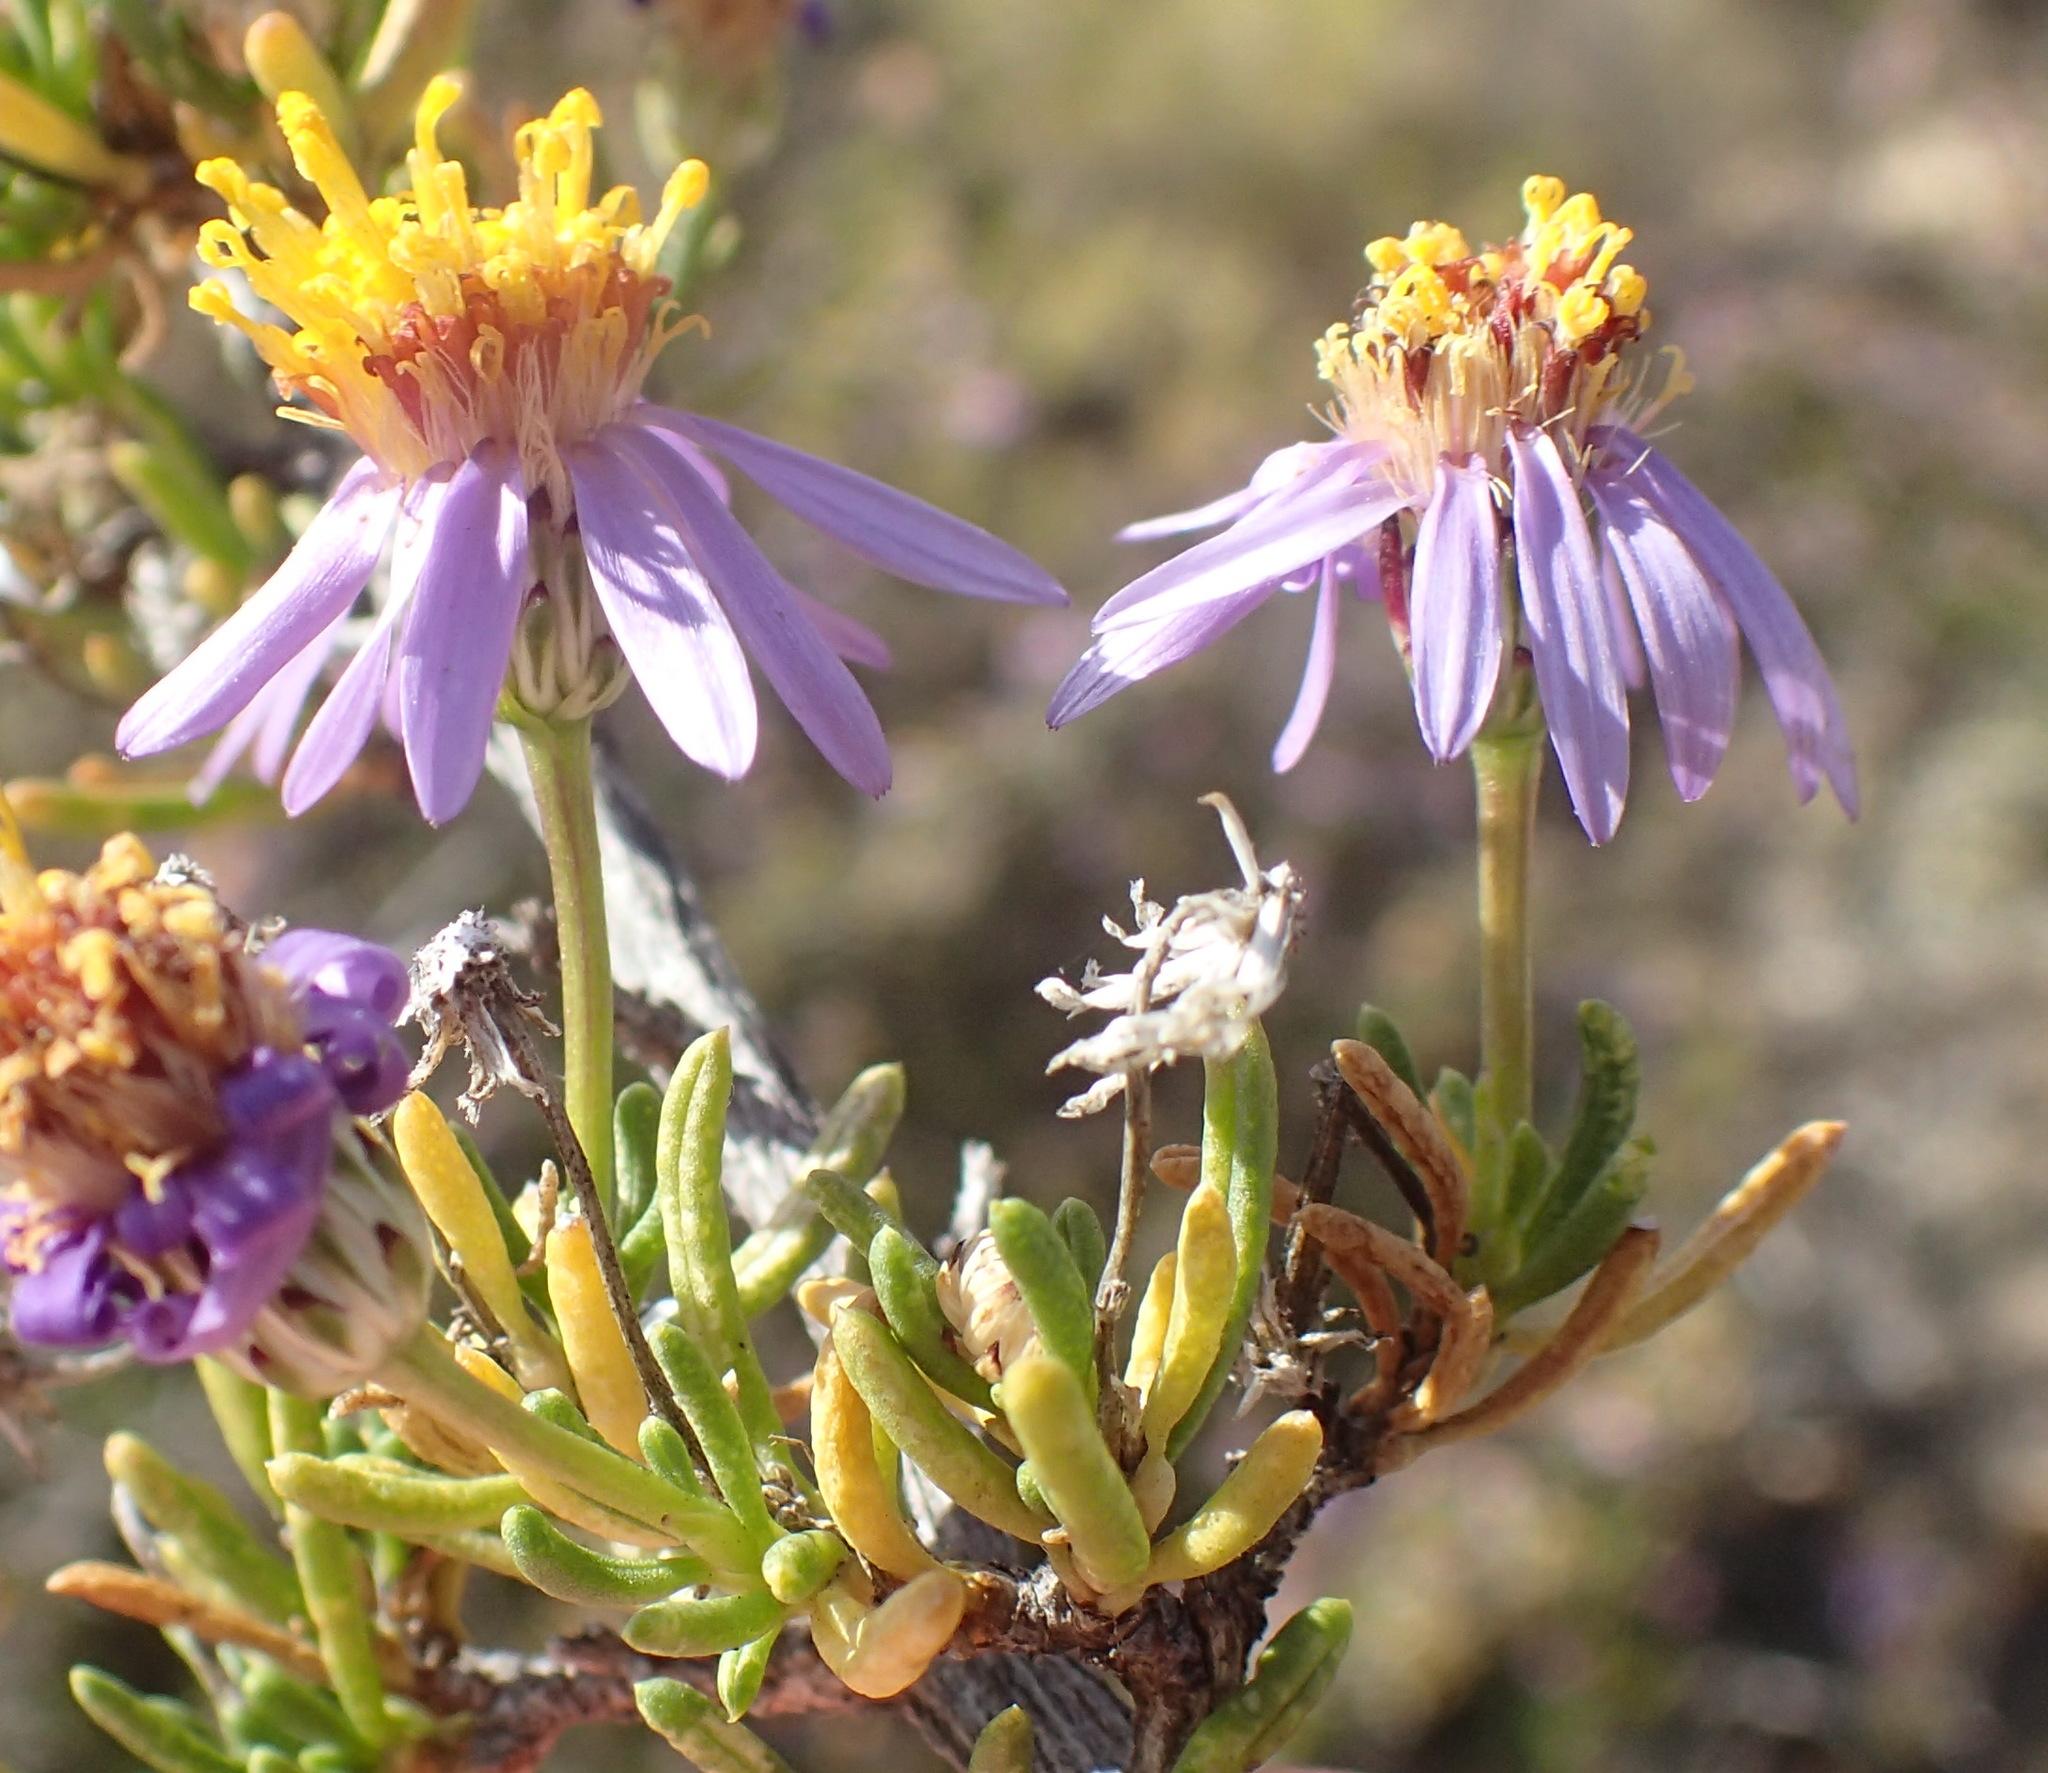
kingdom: Plantae
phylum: Tracheophyta
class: Magnoliopsida
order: Asterales
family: Asteraceae
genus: Felicia
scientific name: Felicia filifolia
